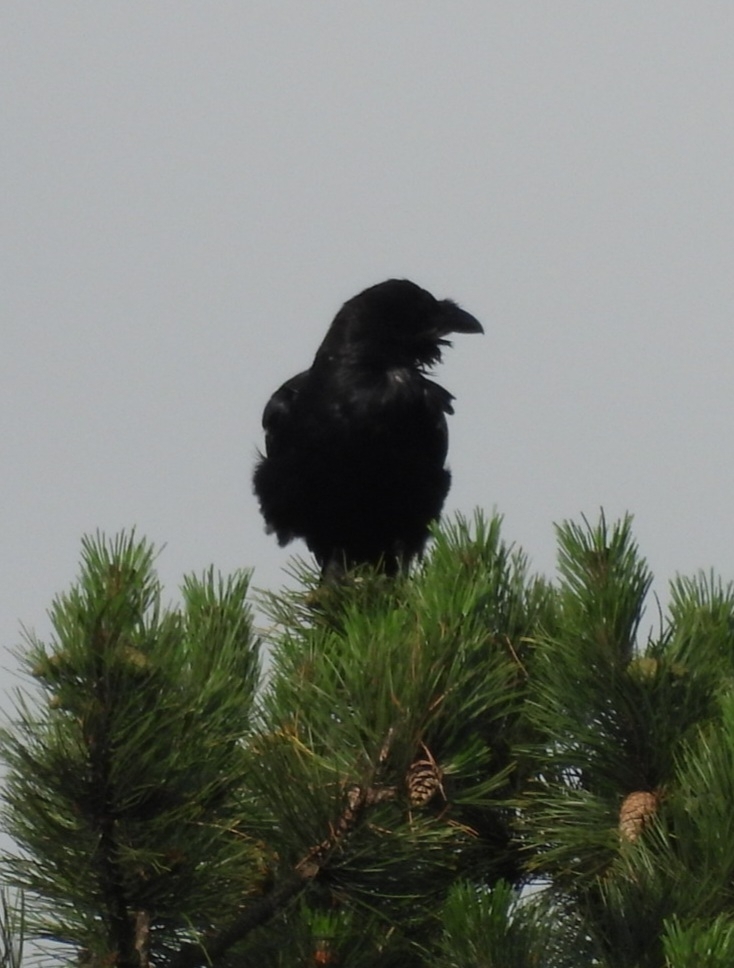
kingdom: Animalia
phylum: Chordata
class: Aves
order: Passeriformes
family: Corvidae
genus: Corvus
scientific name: Corvus corax
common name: Common raven
